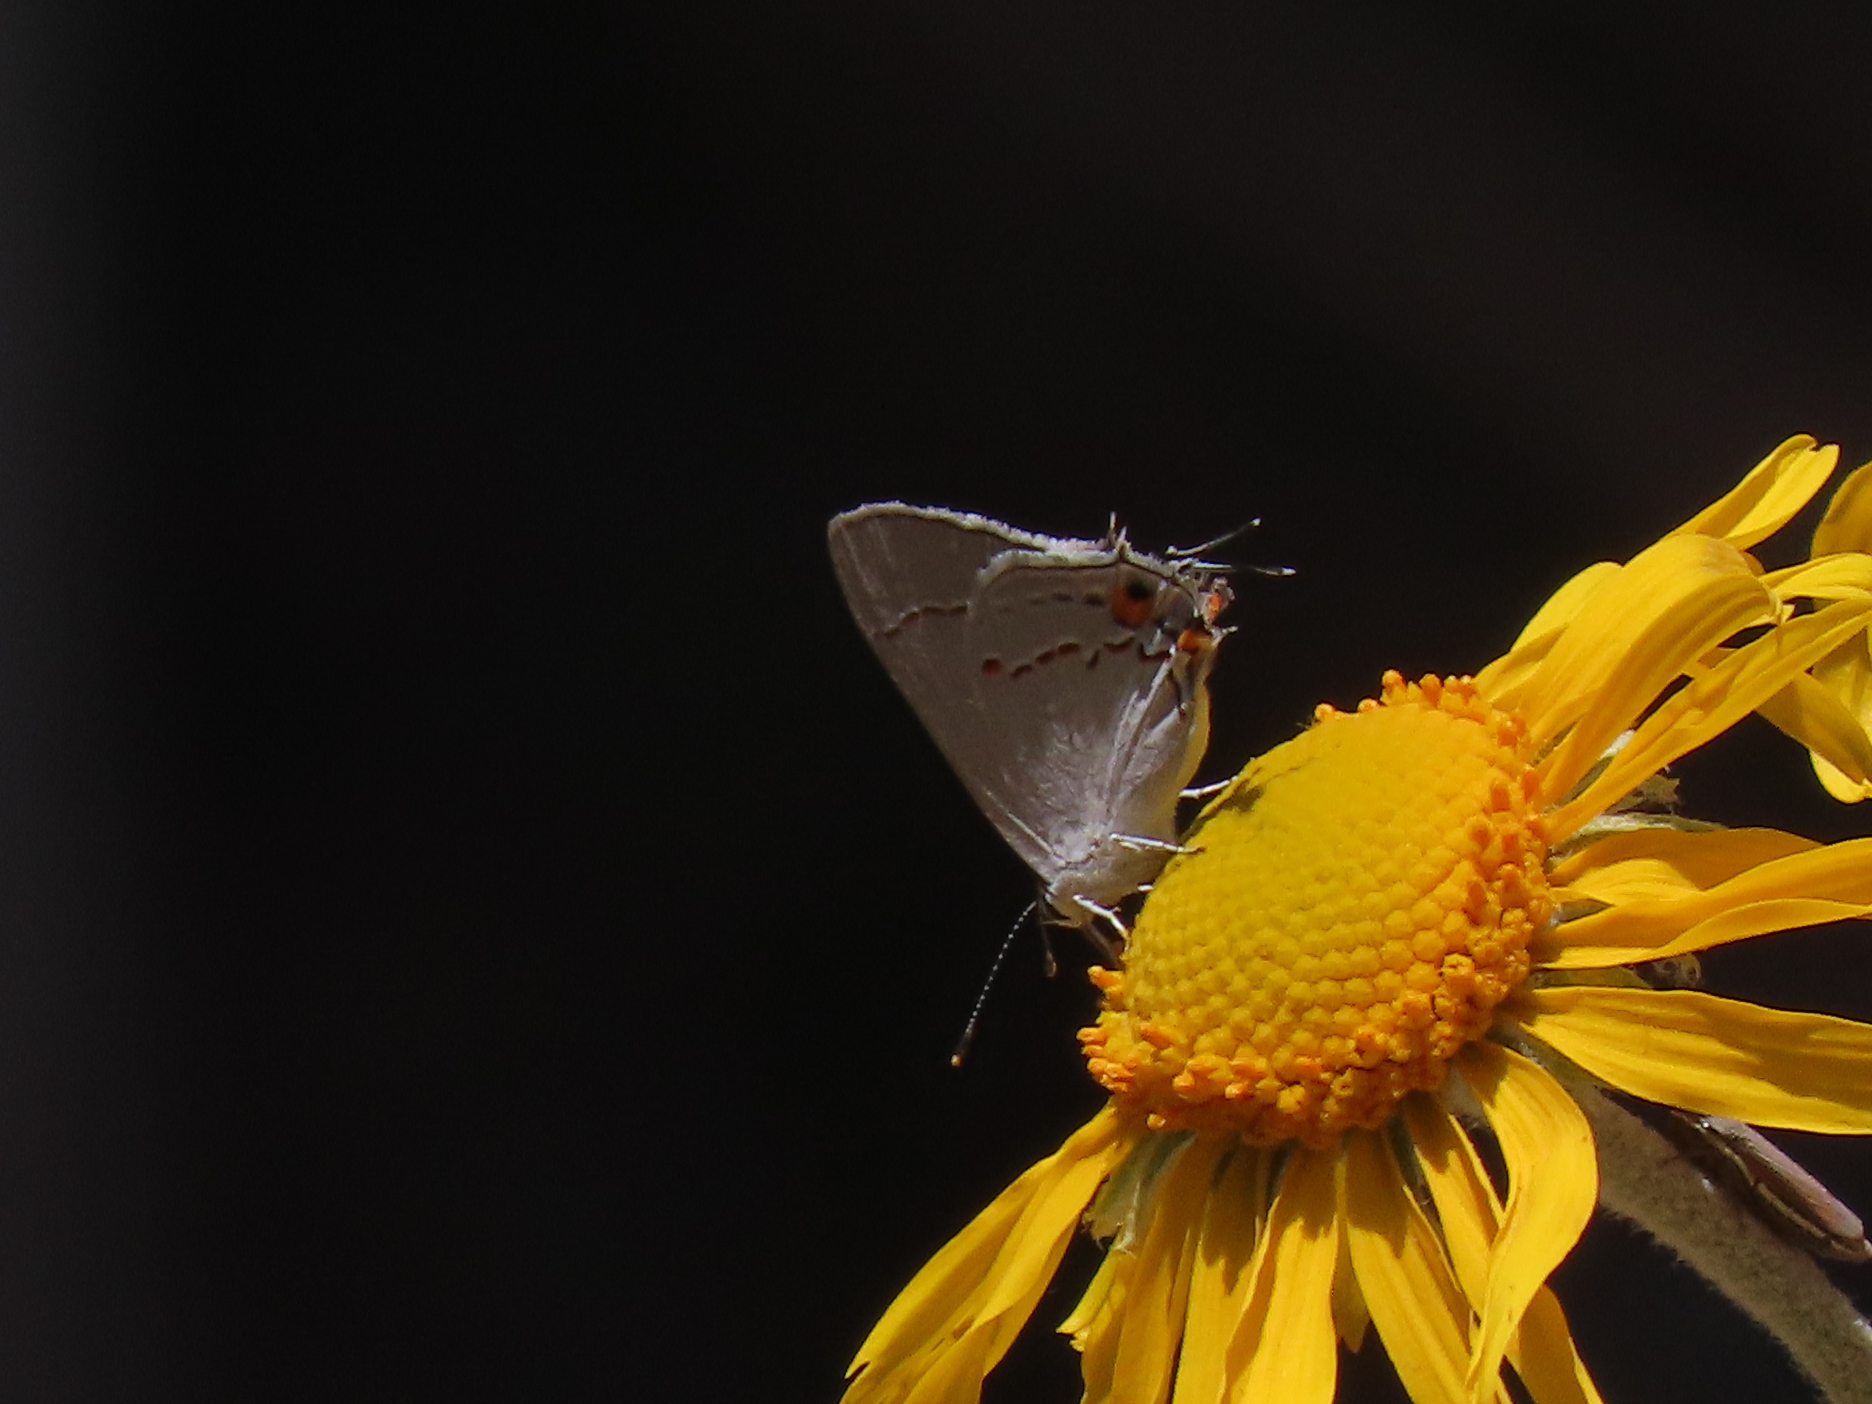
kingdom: Animalia
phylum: Arthropoda
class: Insecta
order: Lepidoptera
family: Lycaenidae
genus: Strymon
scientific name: Strymon melinus
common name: Gray hairstreak
